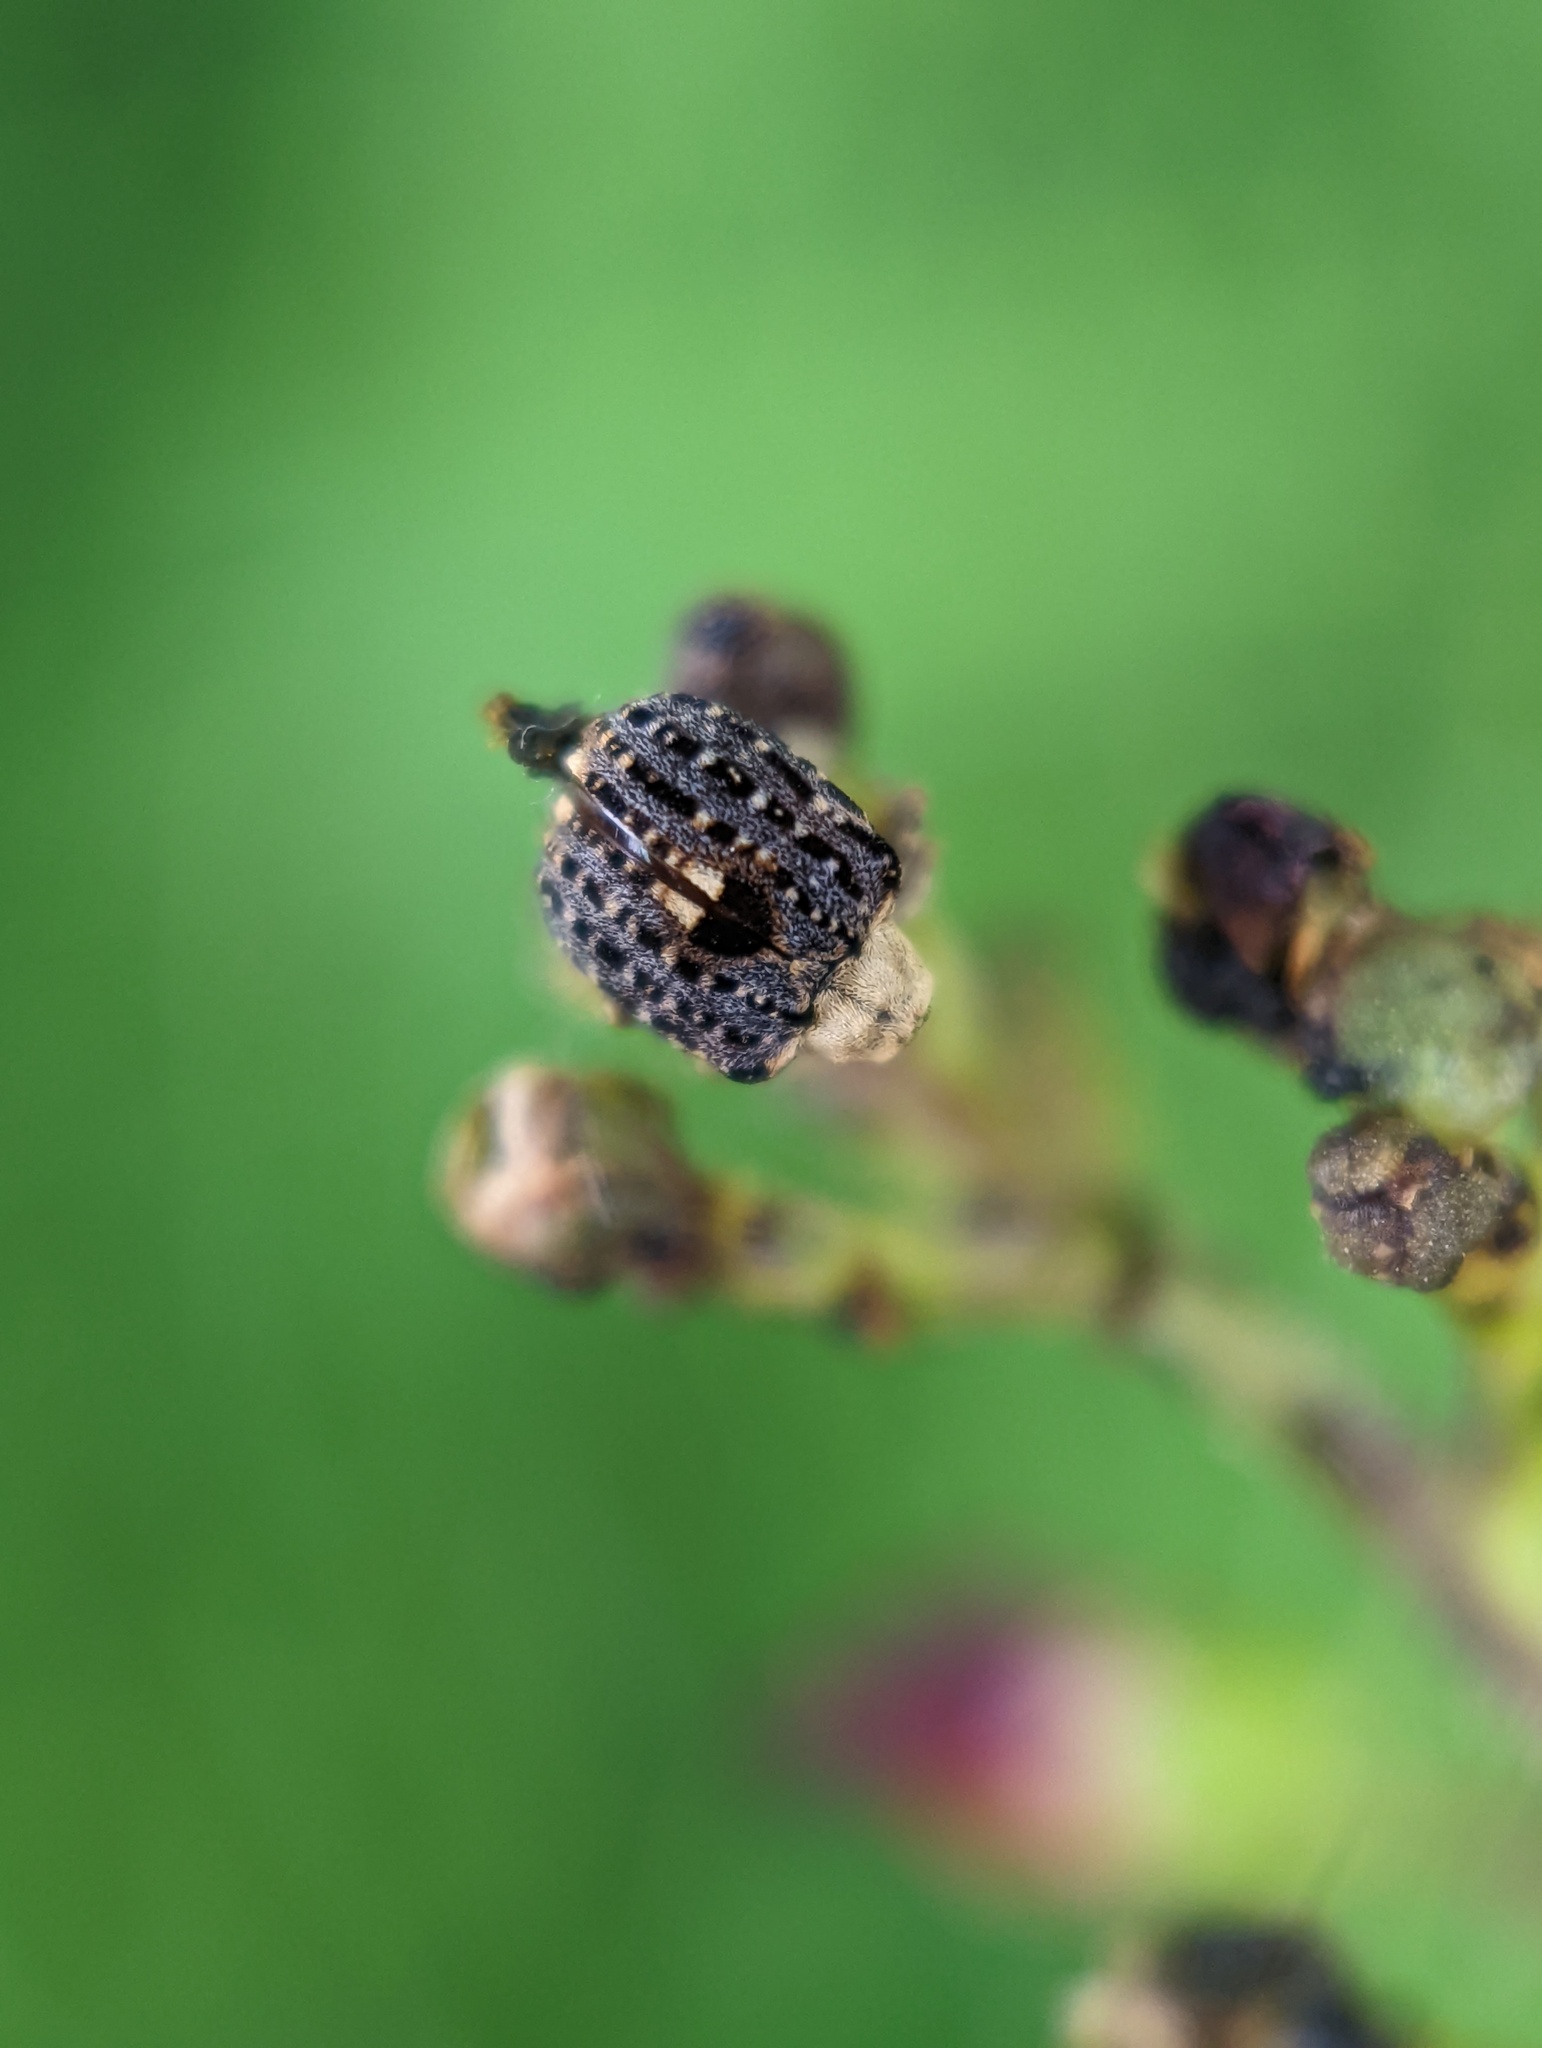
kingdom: Animalia
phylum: Arthropoda
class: Insecta
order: Coleoptera
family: Curculionidae
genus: Cionus
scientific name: Cionus scrophulariae
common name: Common figwort weevil
